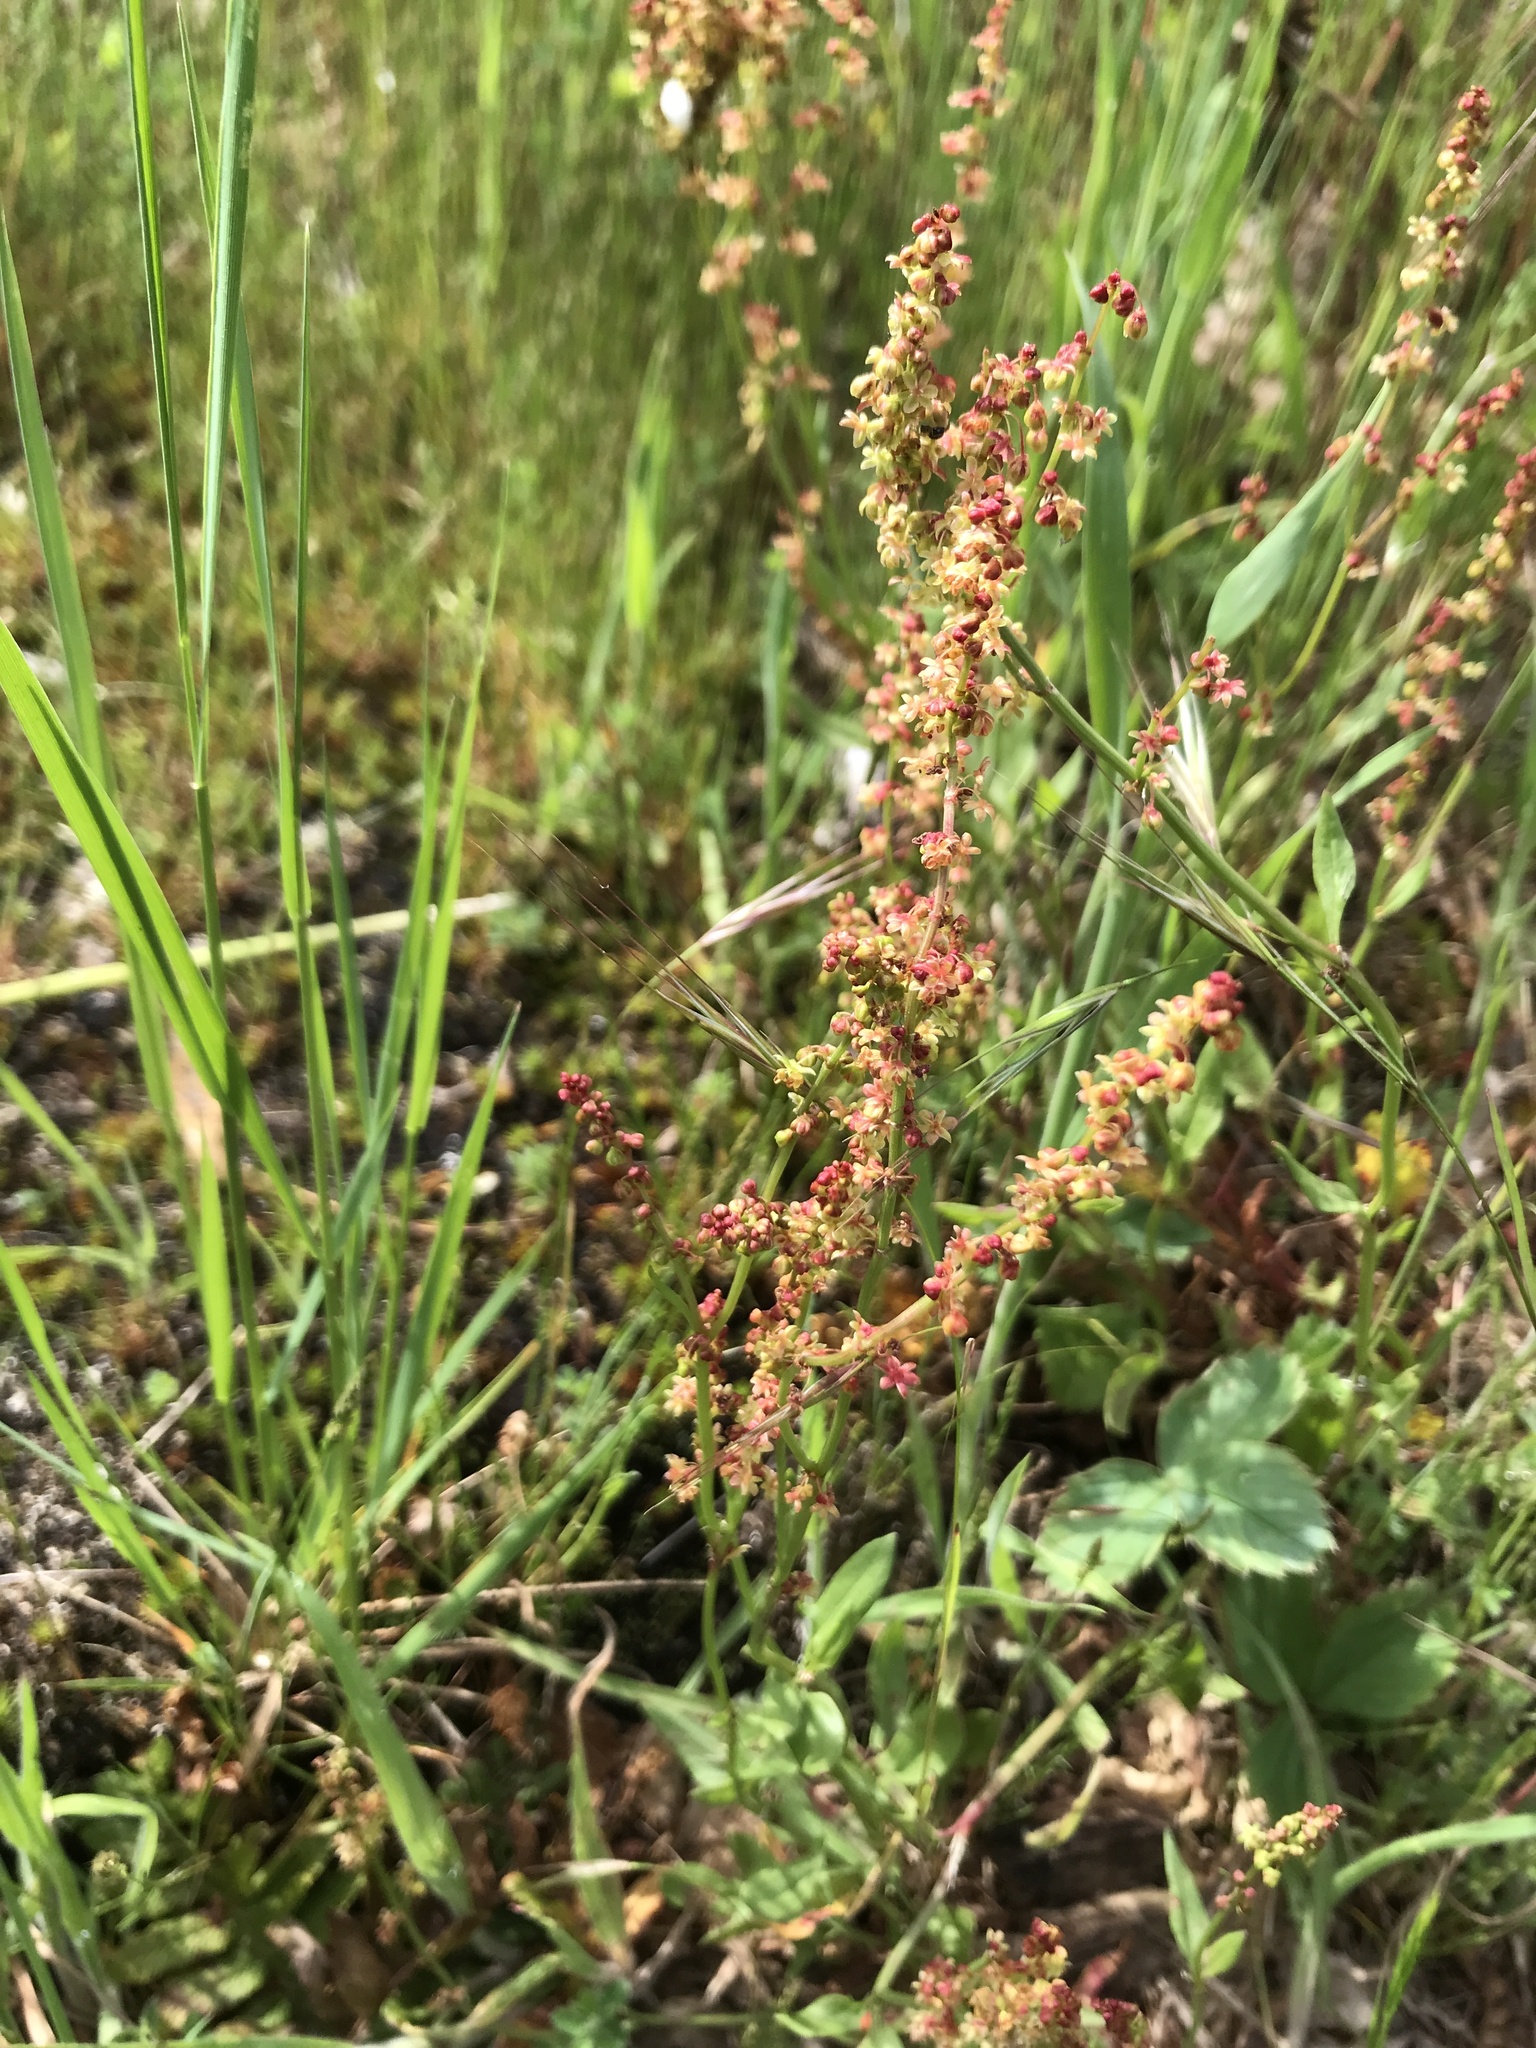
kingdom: Plantae
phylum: Tracheophyta
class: Magnoliopsida
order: Caryophyllales
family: Polygonaceae
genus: Rumex
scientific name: Rumex acetosella
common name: Common sheep sorrel
